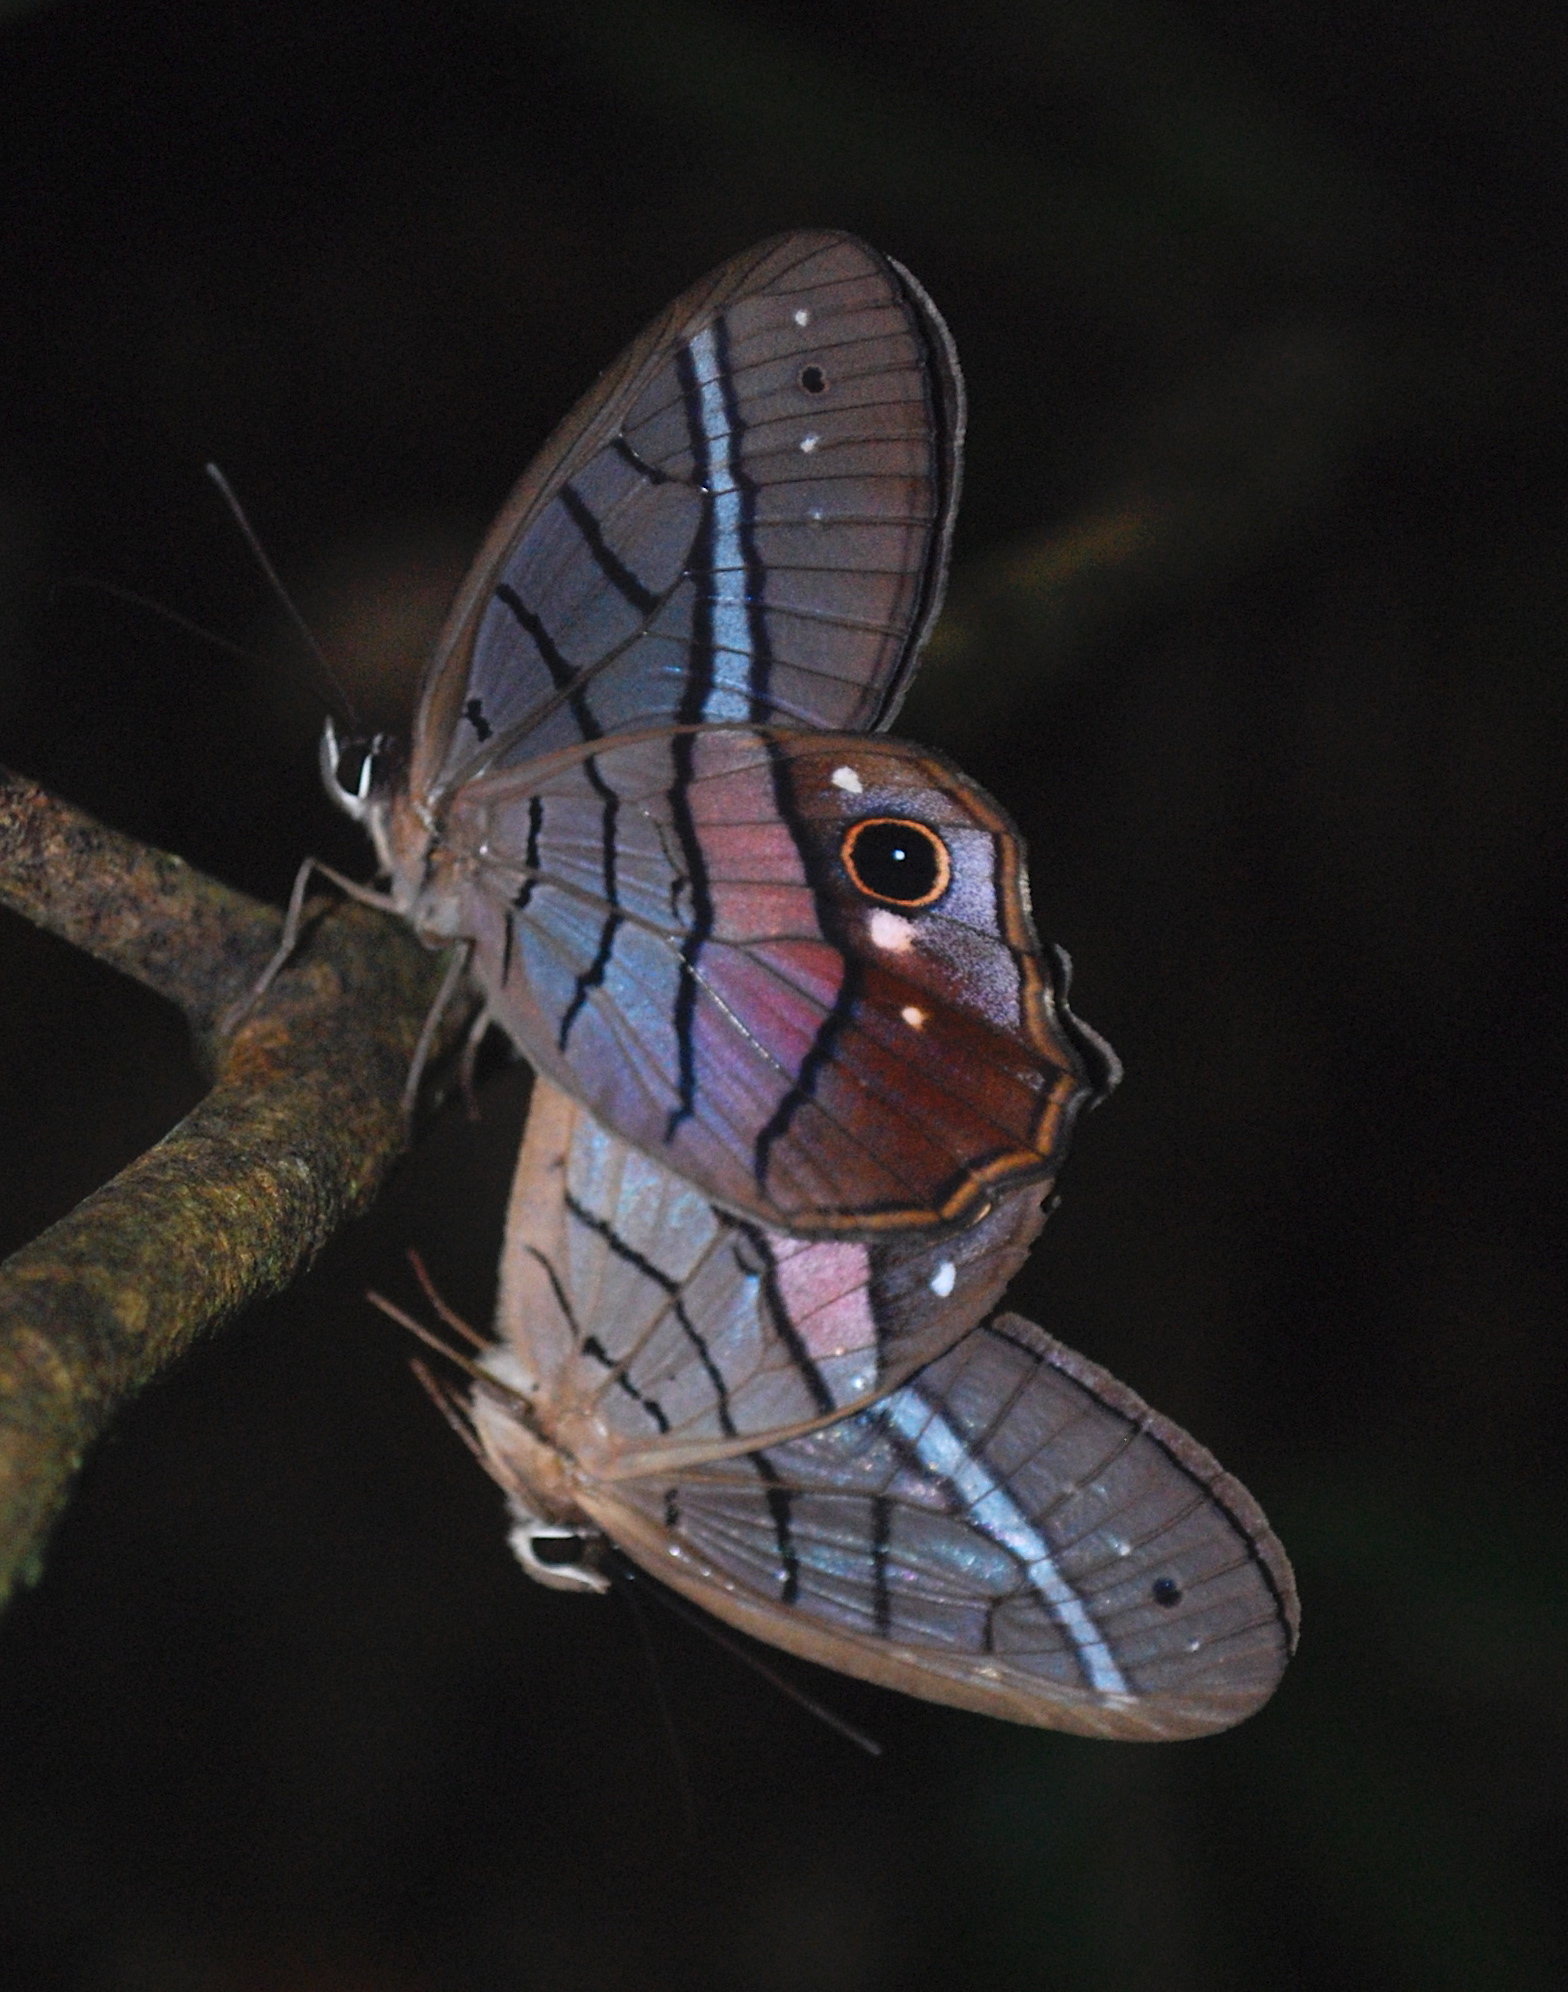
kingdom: Animalia
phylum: Arthropoda
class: Insecta
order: Lepidoptera
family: Nymphalidae
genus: Pierella
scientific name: Pierella helvina
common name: Red-washed satyr
